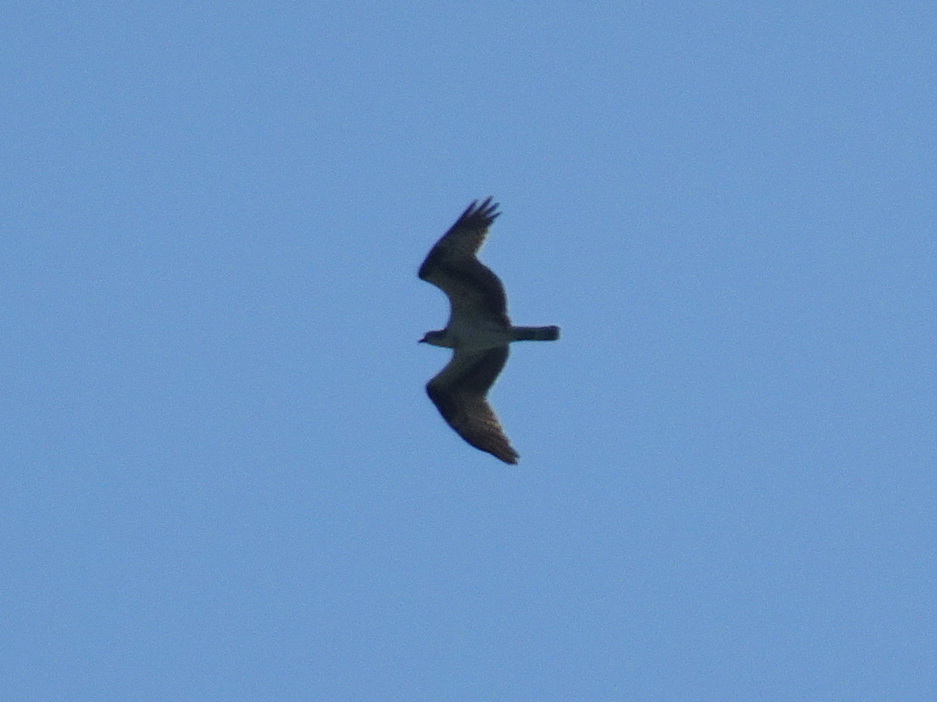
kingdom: Animalia
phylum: Chordata
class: Aves
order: Accipitriformes
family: Pandionidae
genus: Pandion
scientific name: Pandion haliaetus
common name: Osprey
